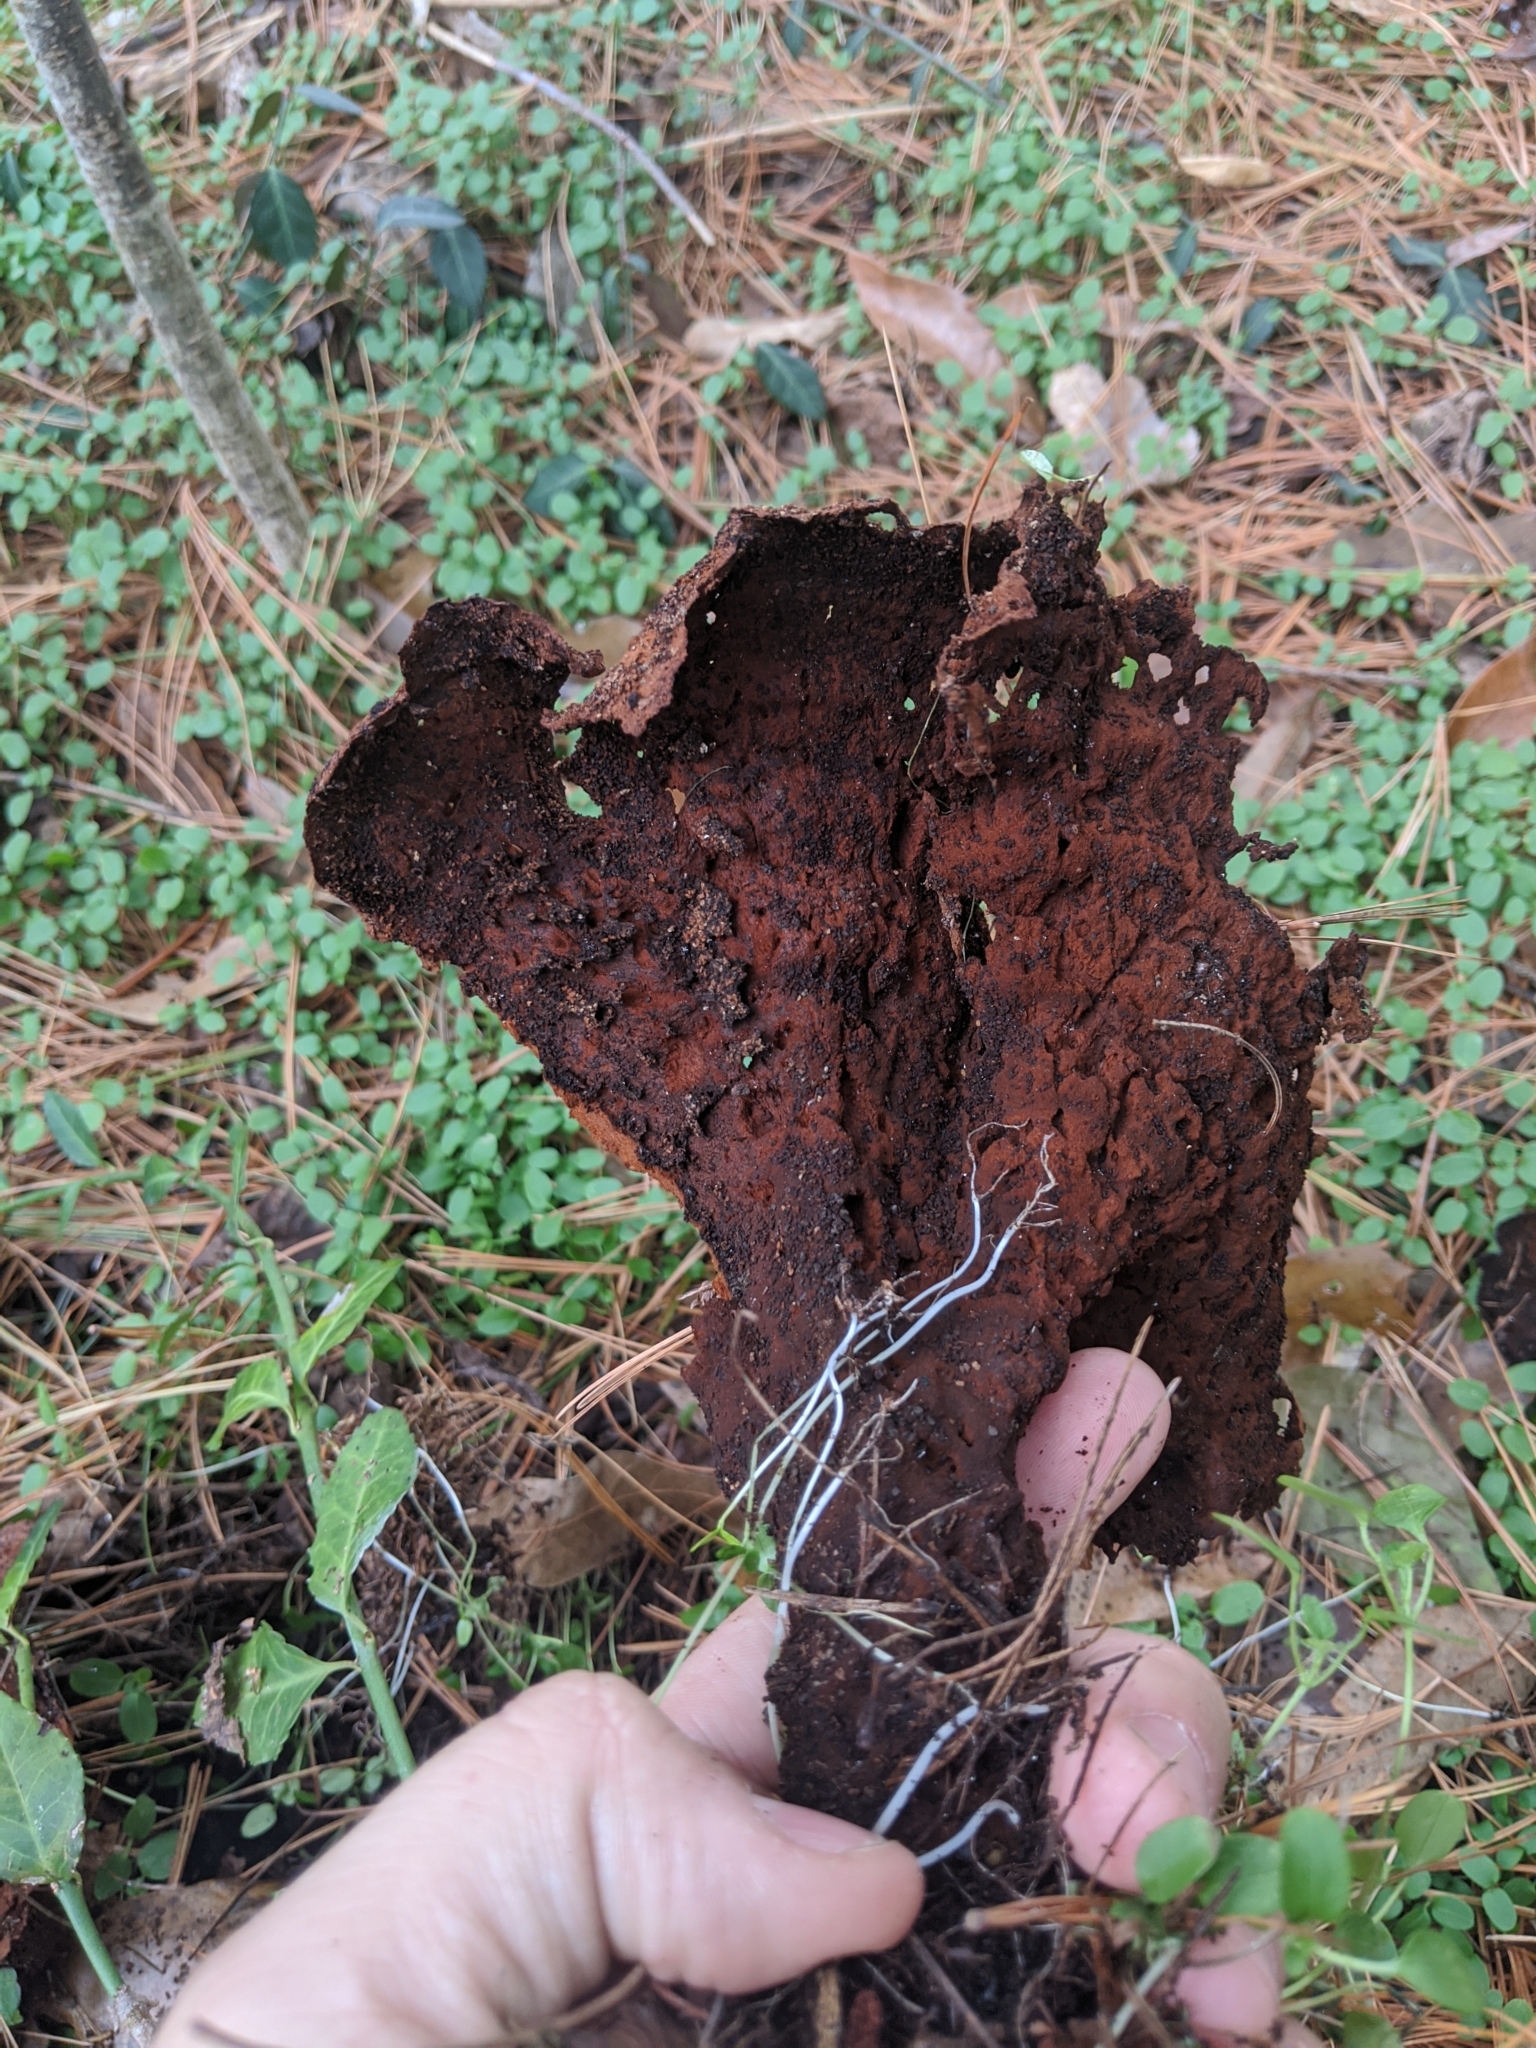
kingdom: Fungi
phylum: Basidiomycota
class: Agaricomycetes
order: Polyporales
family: Laetiporaceae
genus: Phaeolus
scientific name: Phaeolus schweinitzii
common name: Dyer's mazegill
